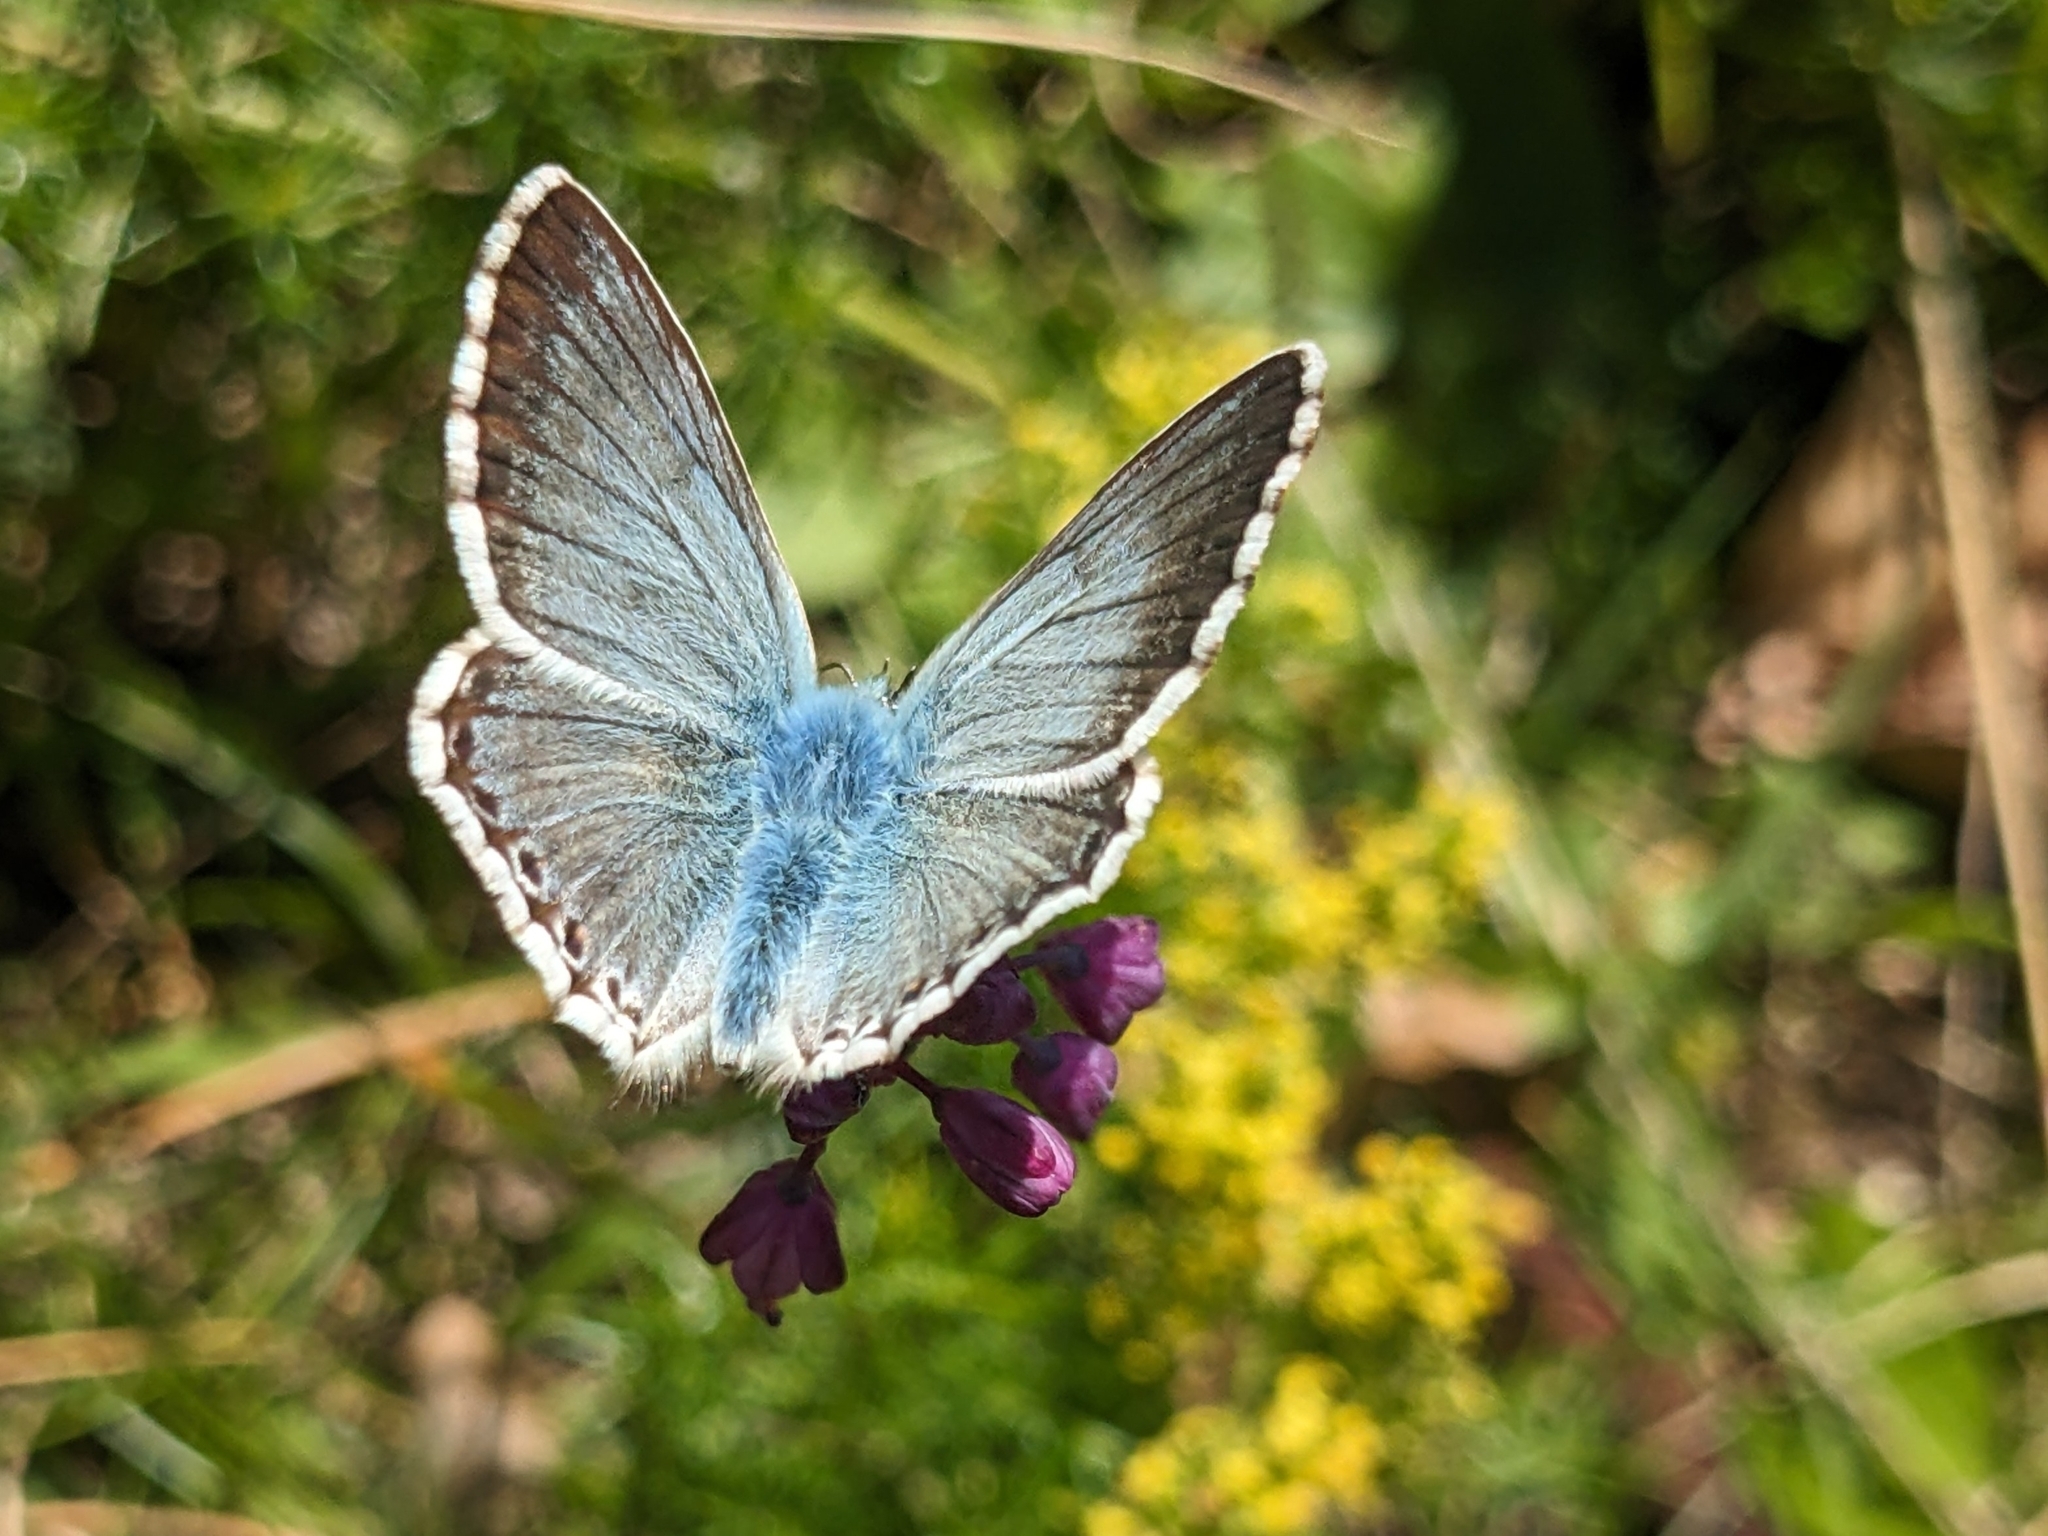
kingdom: Animalia
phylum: Arthropoda
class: Insecta
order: Lepidoptera
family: Lycaenidae
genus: Lysandra
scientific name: Lysandra coridon
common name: Chalkhill blue
